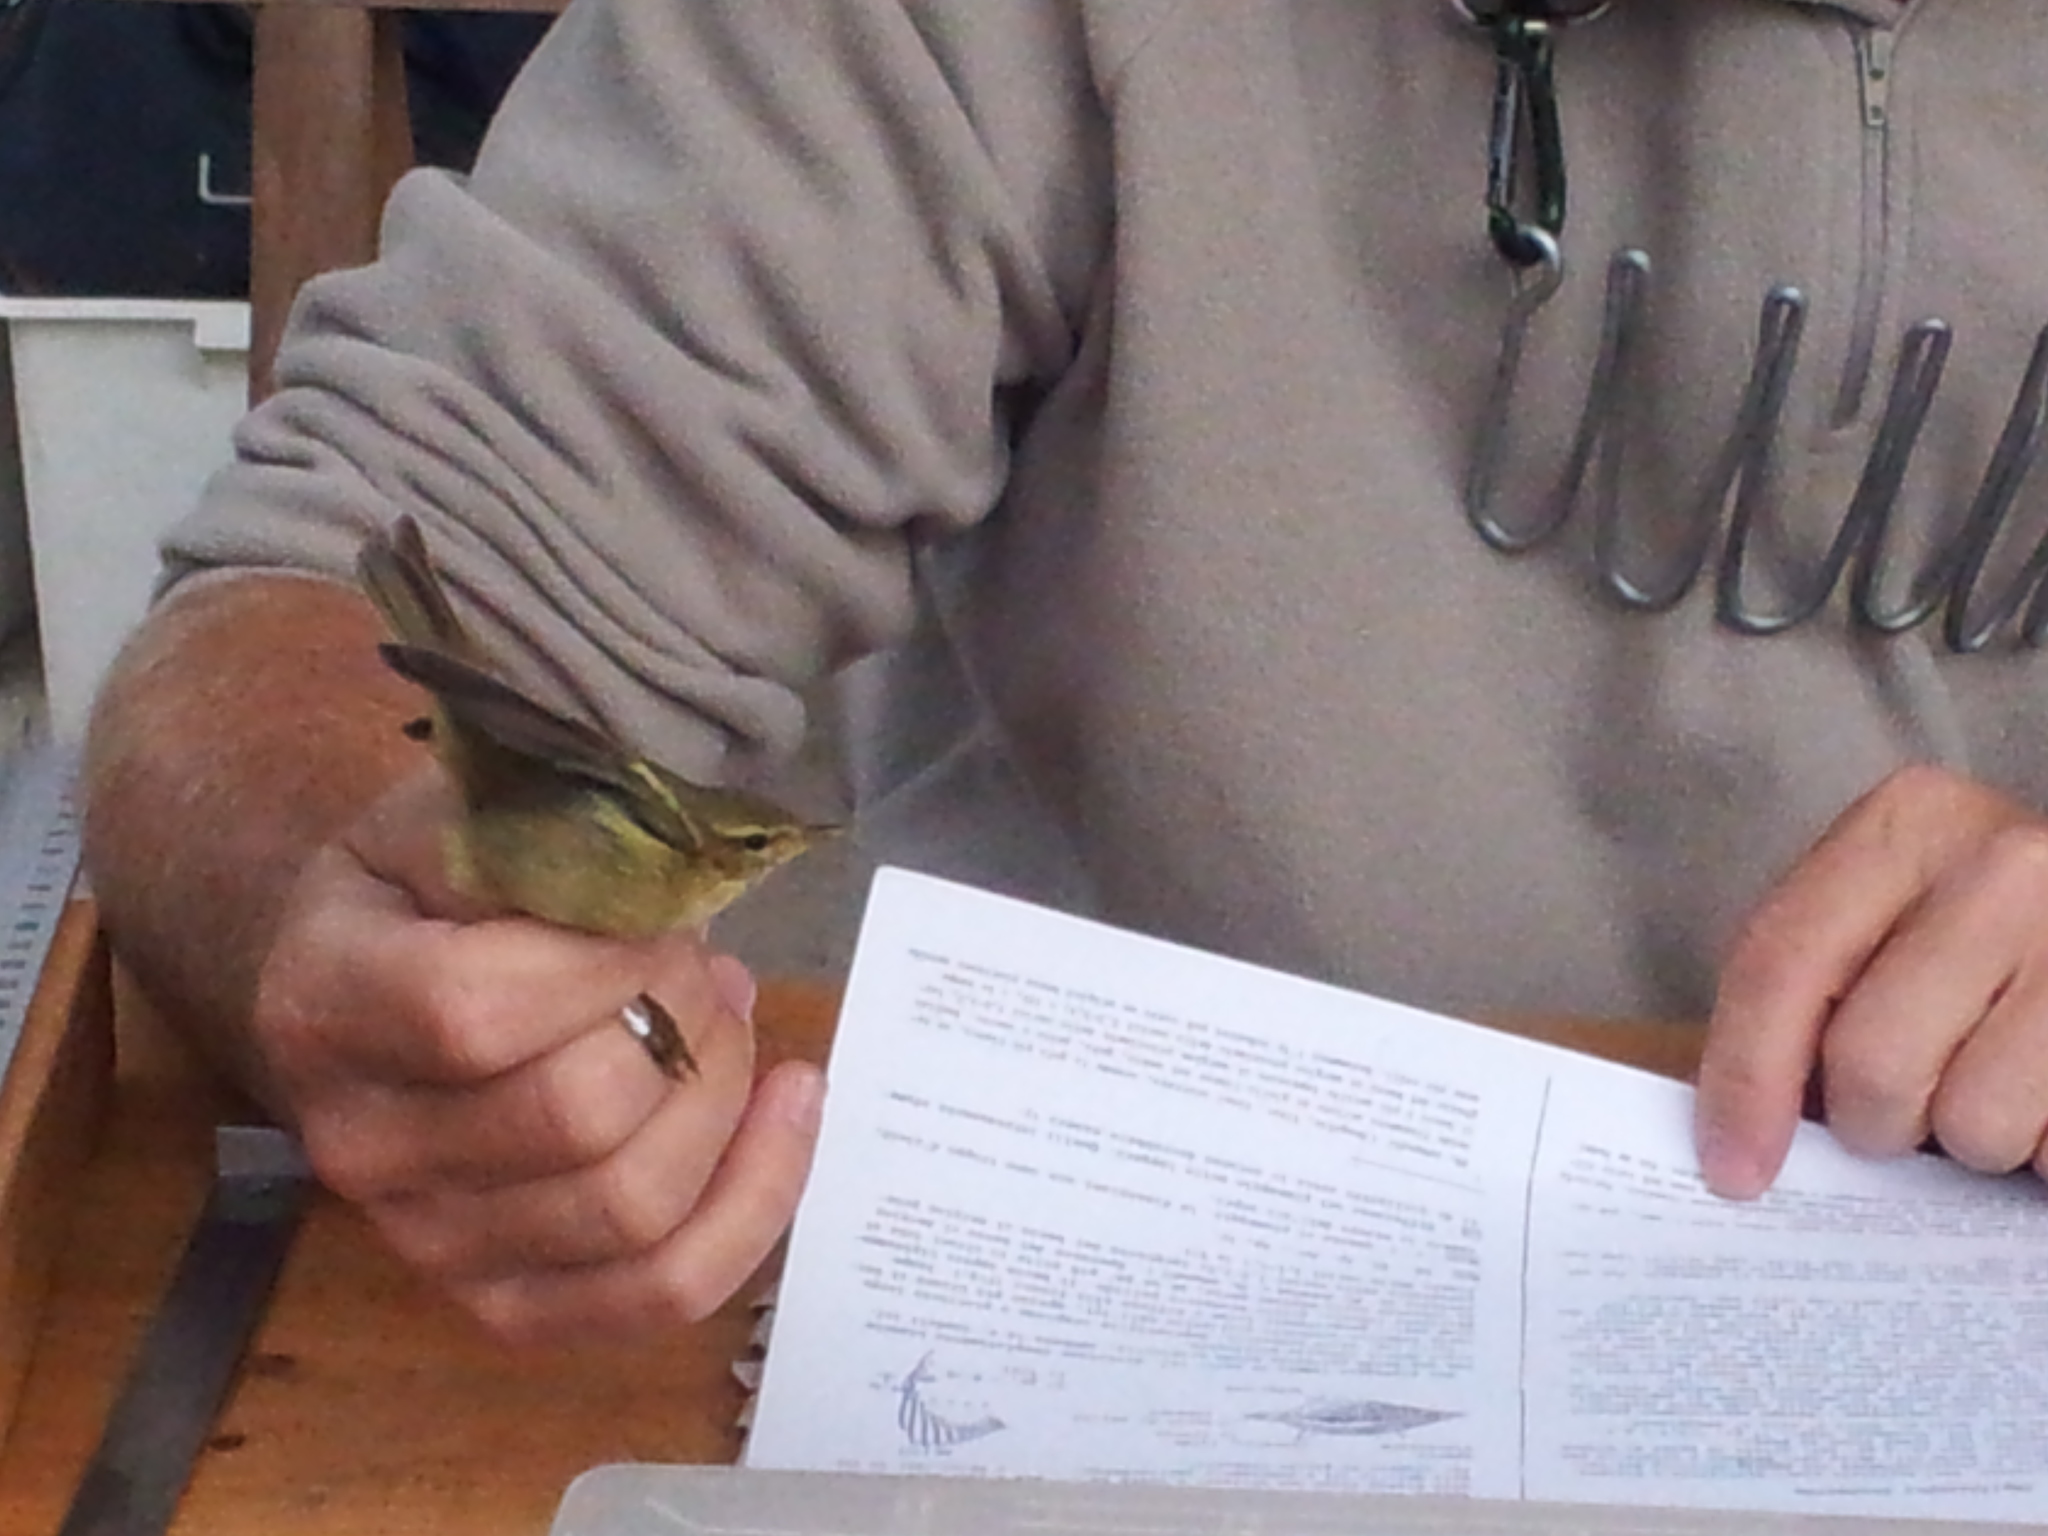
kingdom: Animalia
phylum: Chordata
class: Aves
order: Passeriformes
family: Phylloscopidae
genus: Phylloscopus
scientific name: Phylloscopus trochilus
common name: Willow warbler
